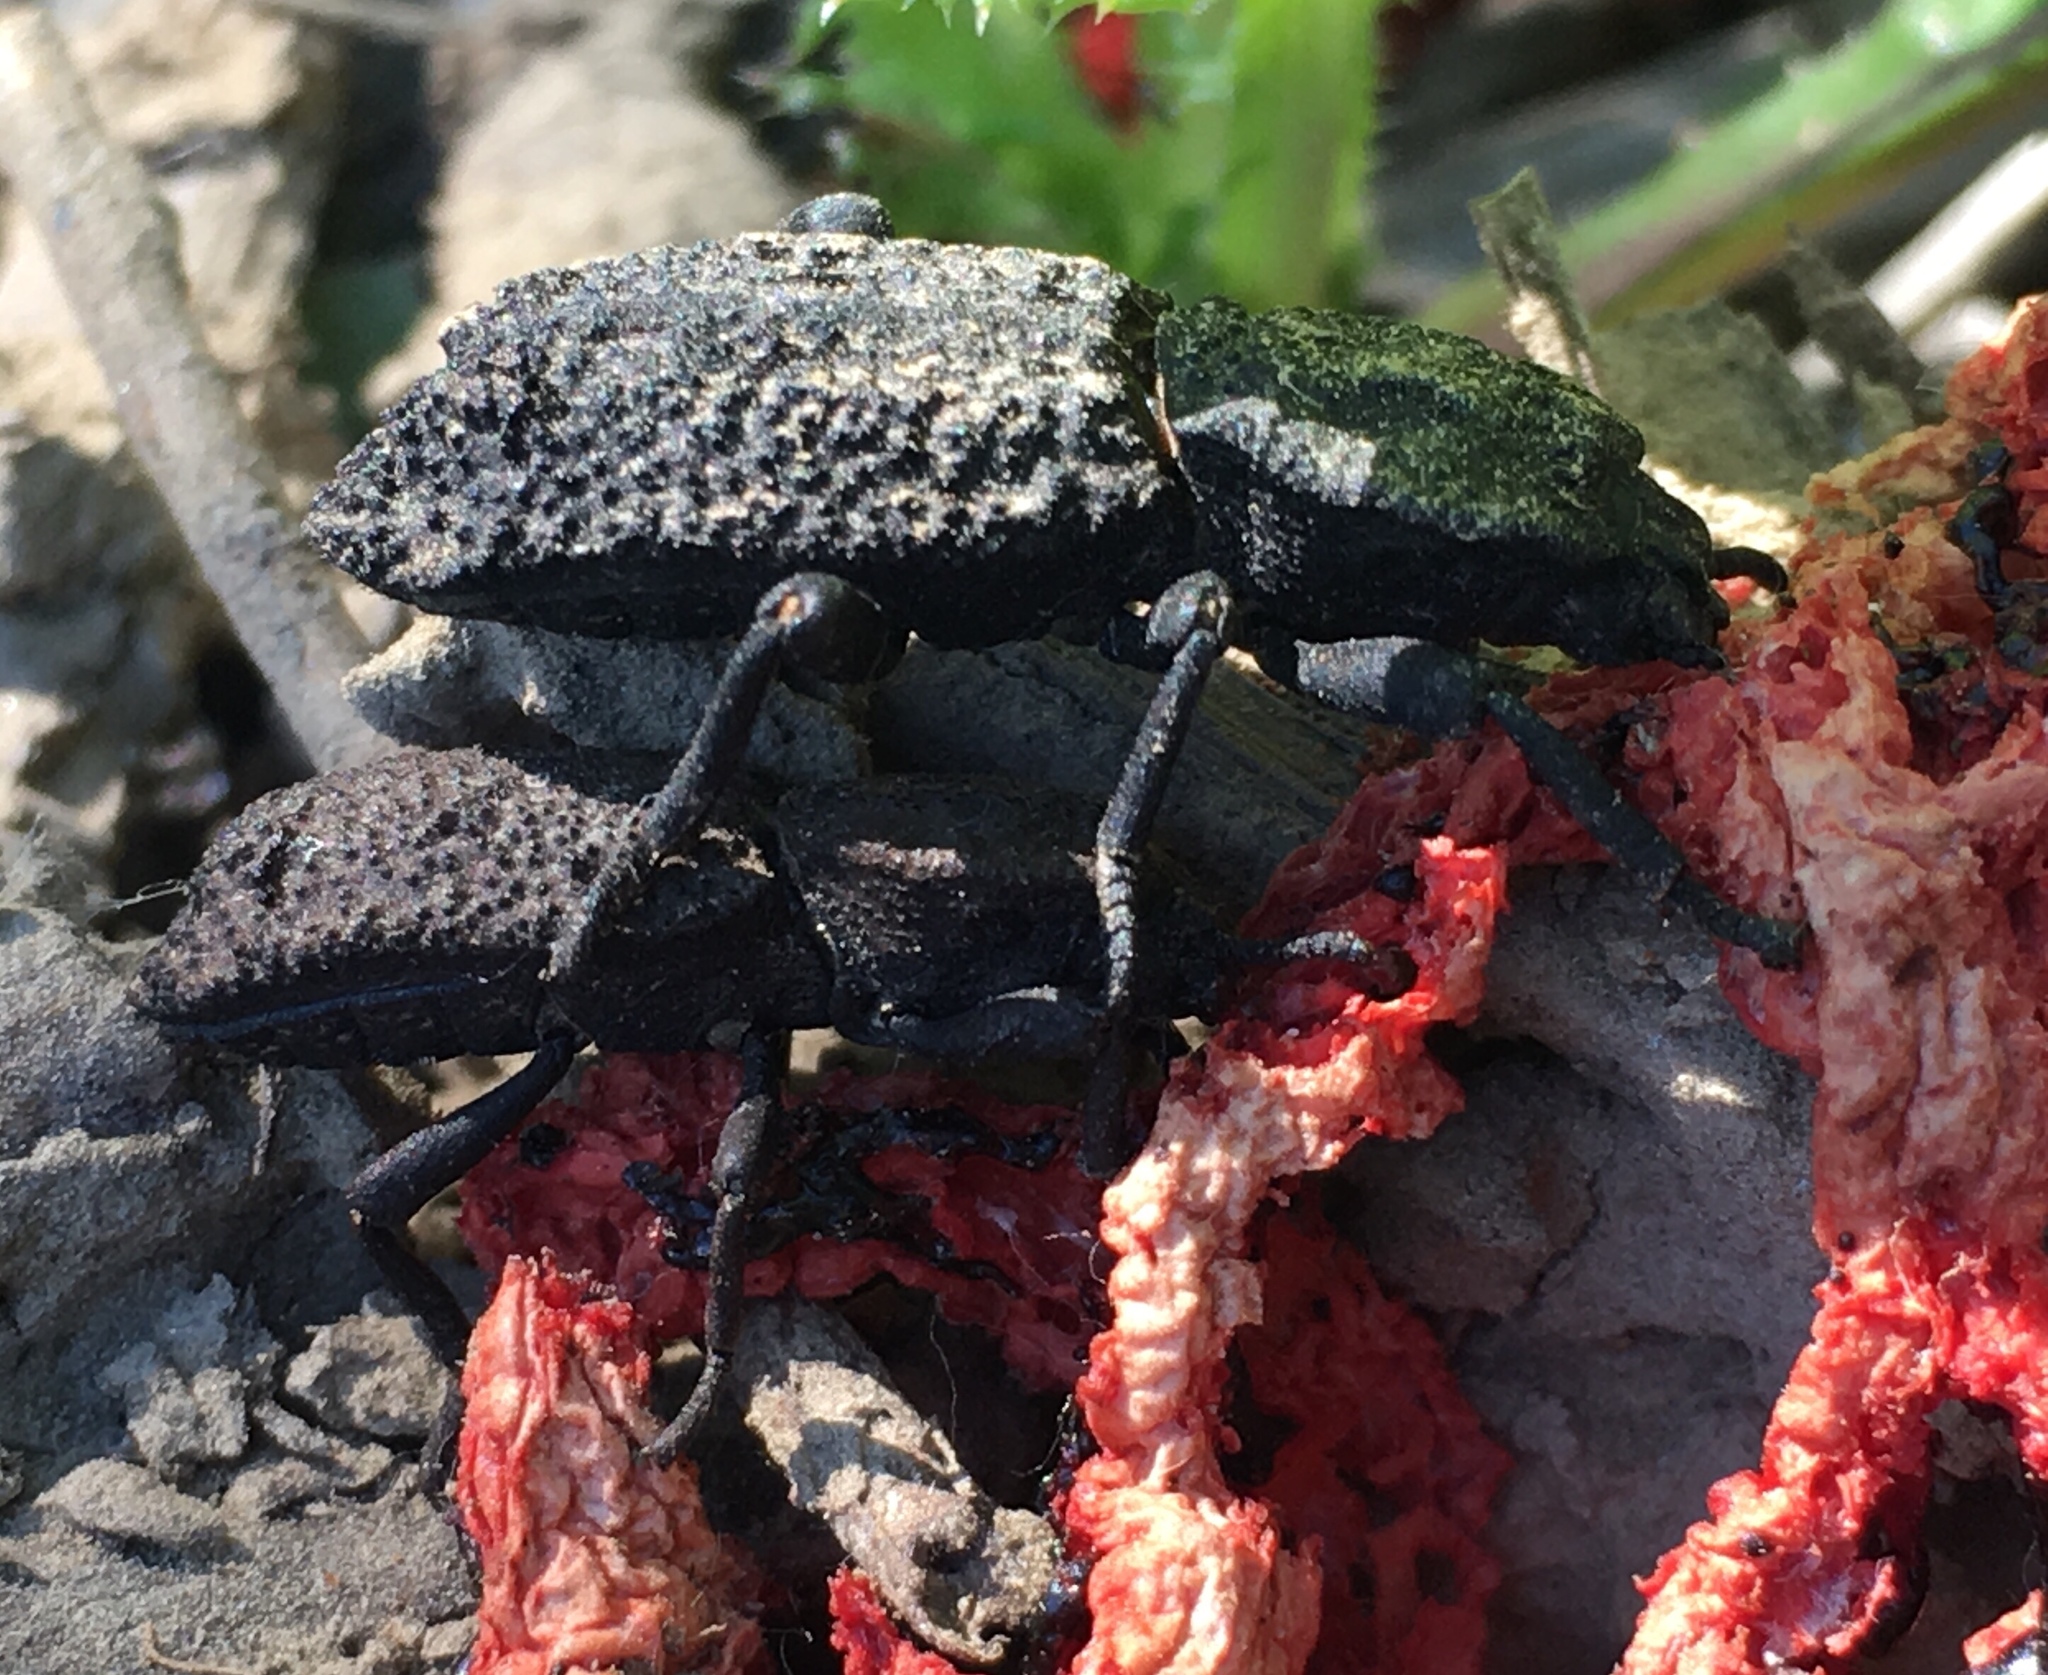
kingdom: Fungi
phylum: Basidiomycota
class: Agaricomycetes
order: Phallales
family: Phallaceae
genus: Clathrus
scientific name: Clathrus ruber
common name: Red cage
